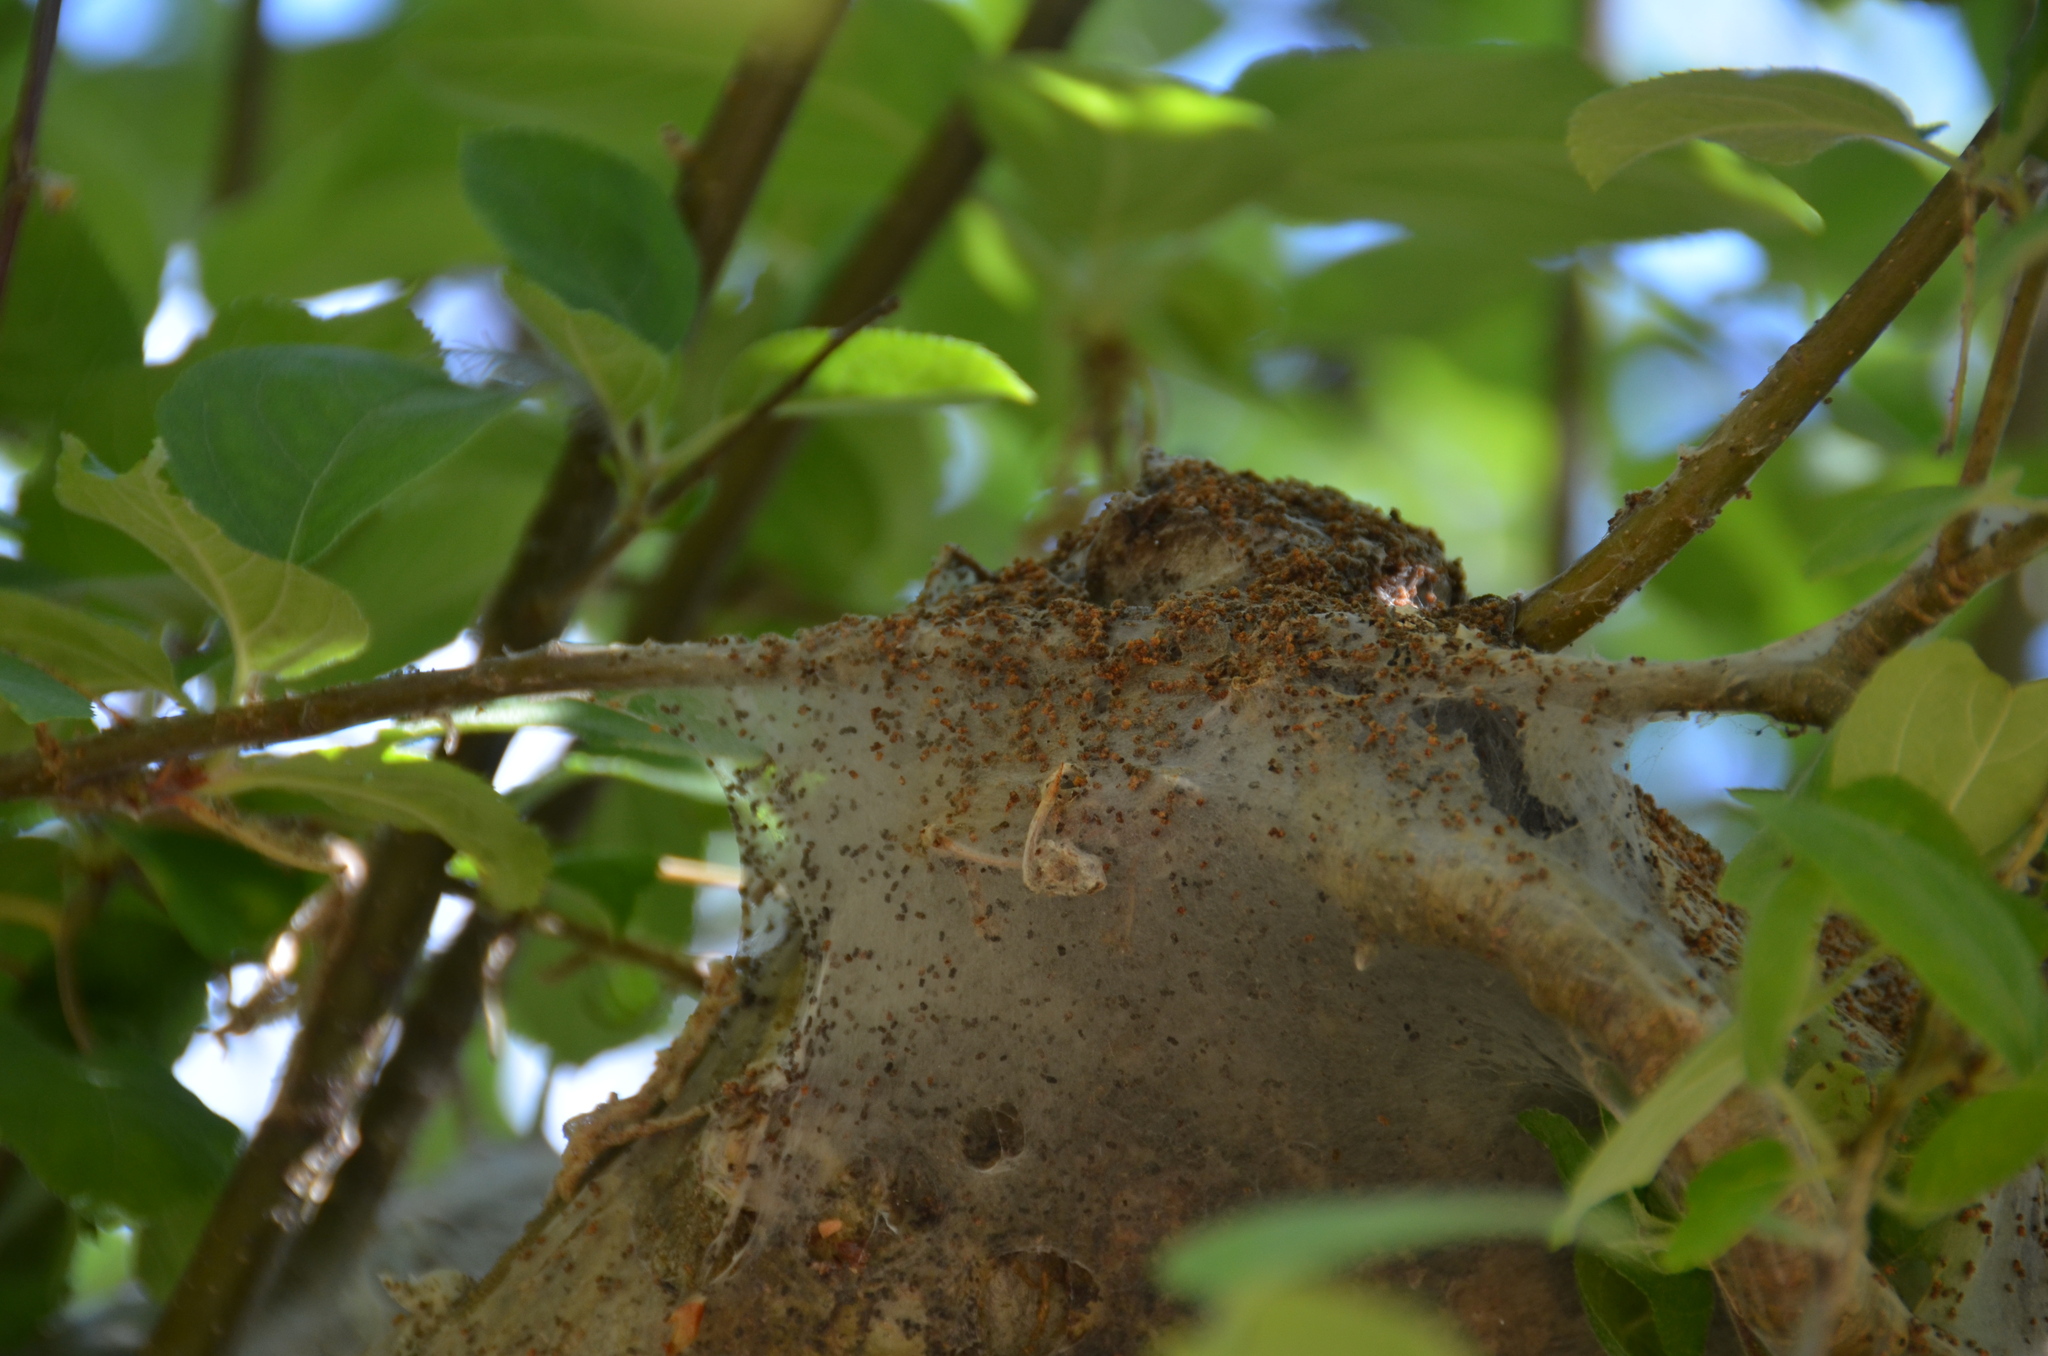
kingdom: Animalia
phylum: Arthropoda
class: Insecta
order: Lepidoptera
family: Lasiocampidae
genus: Malacosoma
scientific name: Malacosoma californica
